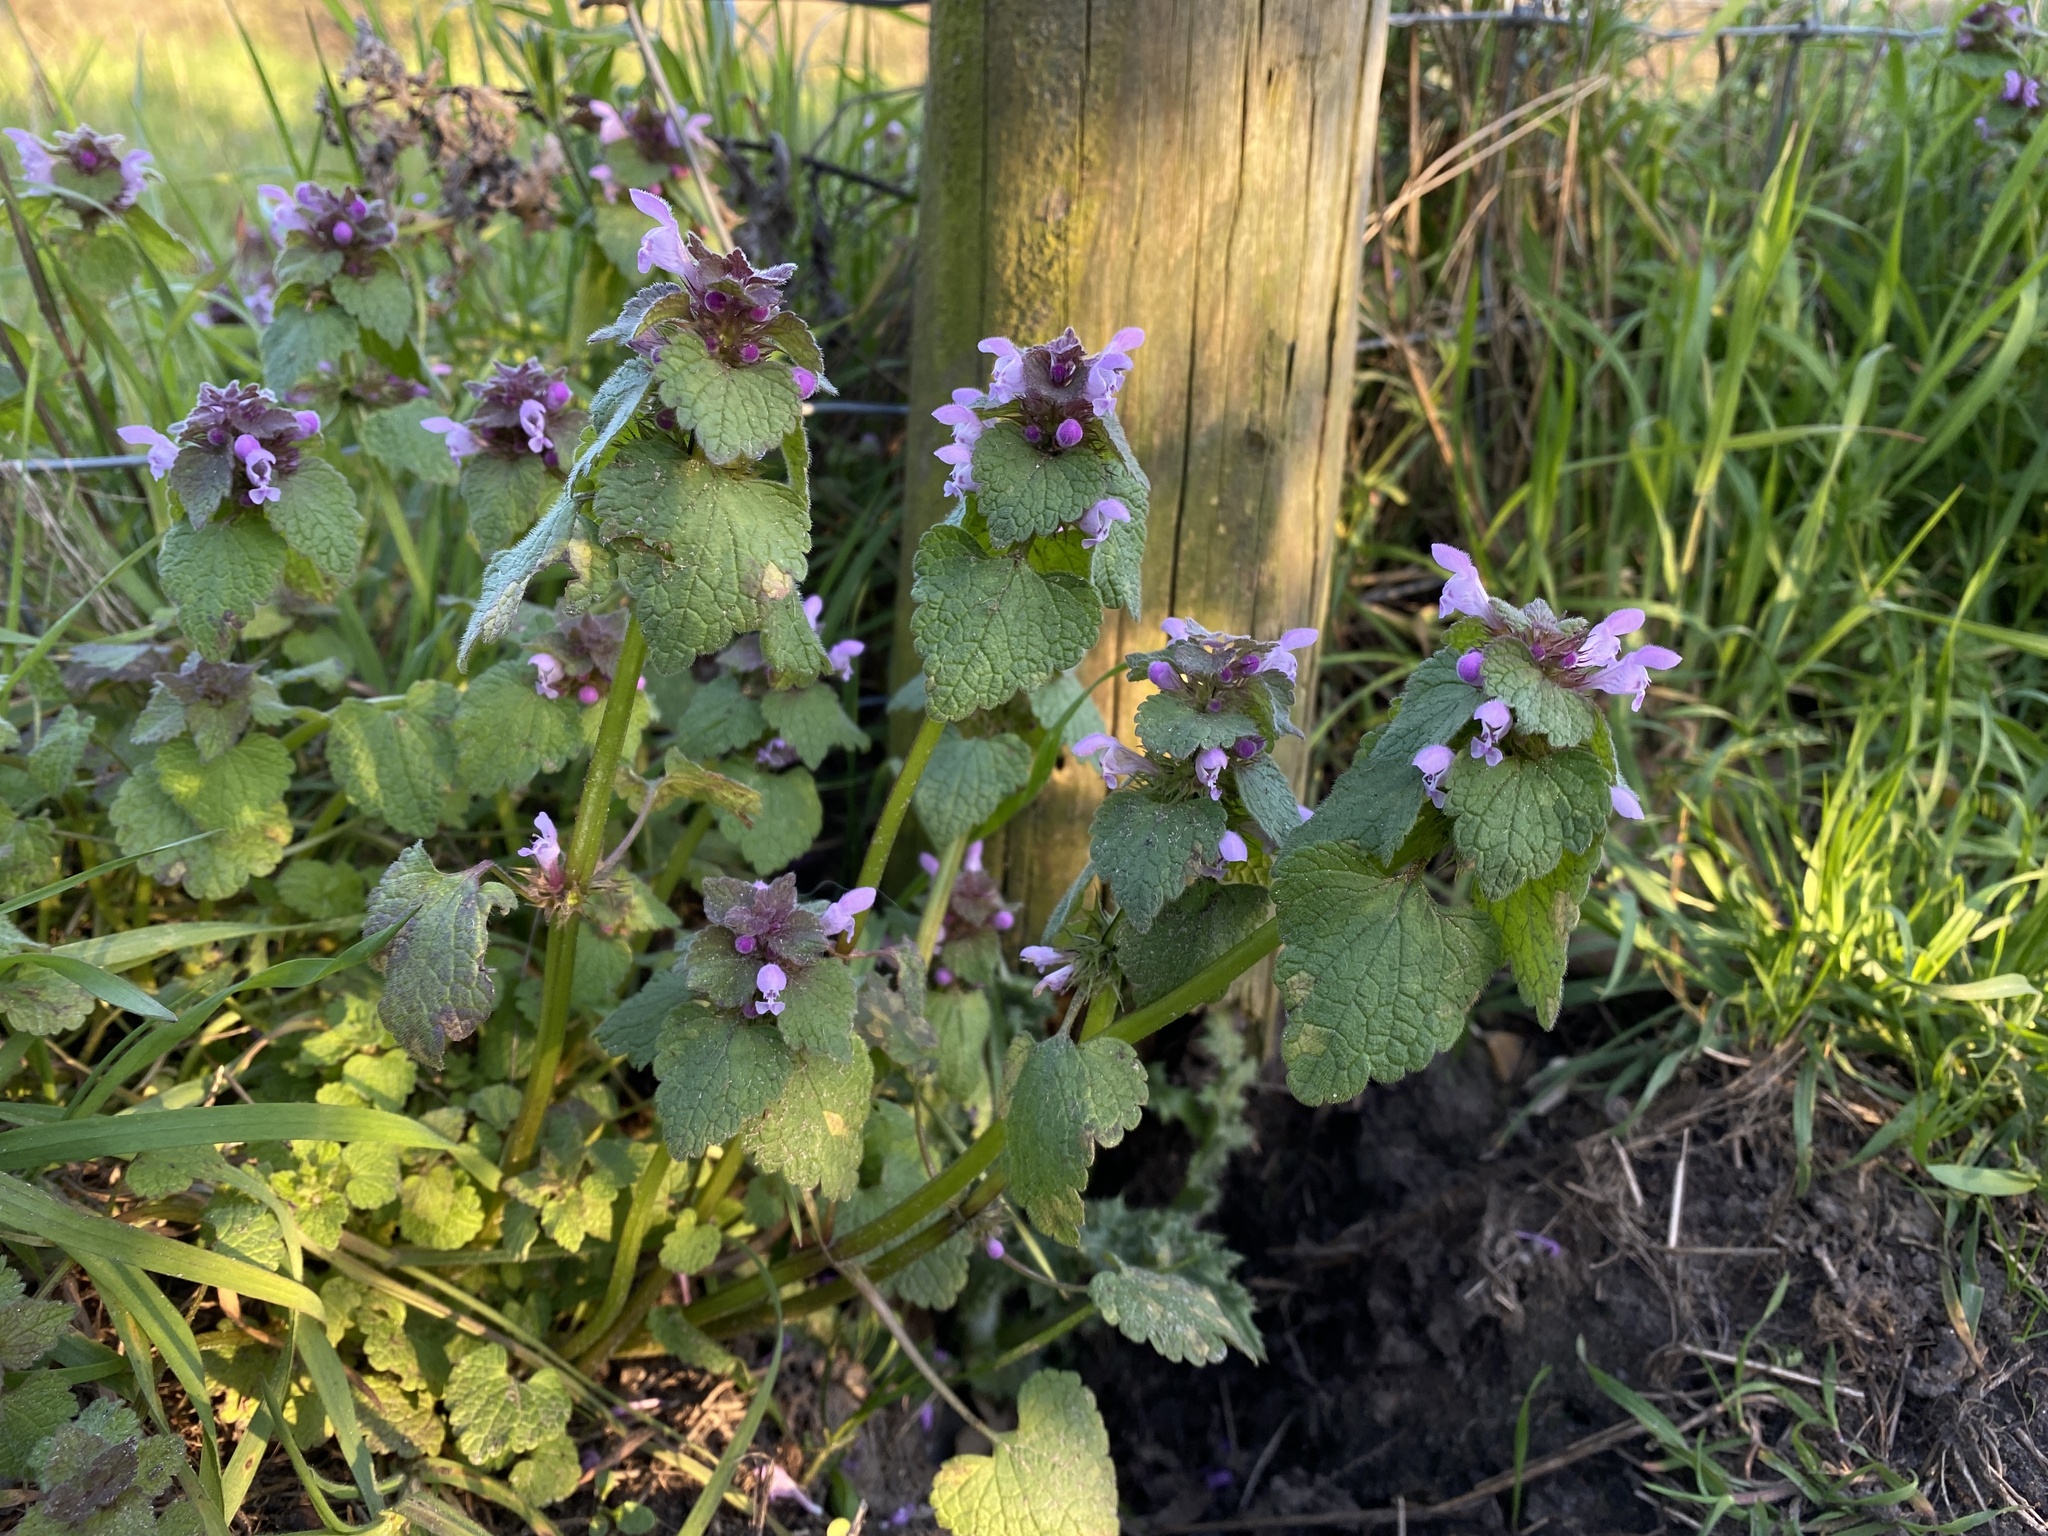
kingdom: Plantae
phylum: Tracheophyta
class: Magnoliopsida
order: Lamiales
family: Lamiaceae
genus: Lamium
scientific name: Lamium purpureum
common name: Red dead-nettle
